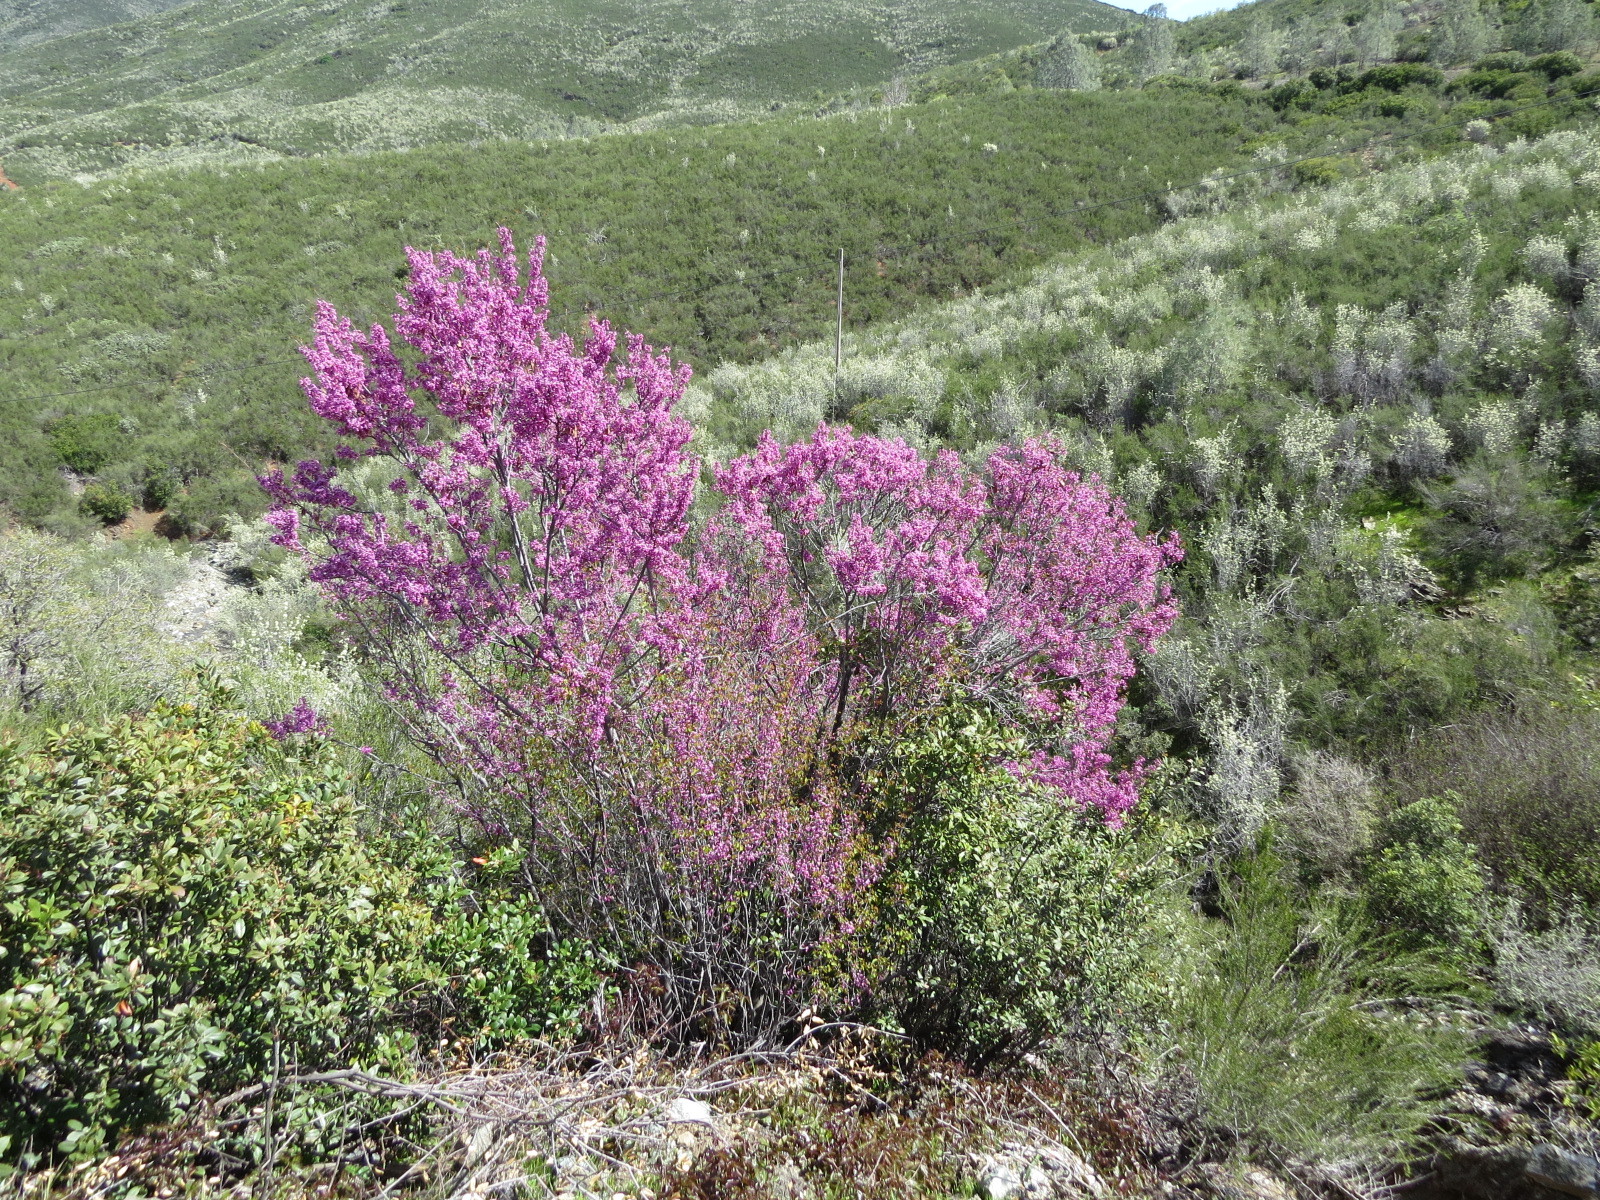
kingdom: Plantae
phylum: Tracheophyta
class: Magnoliopsida
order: Fabales
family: Fabaceae
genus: Cercis
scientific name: Cercis occidentalis
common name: California redbud
